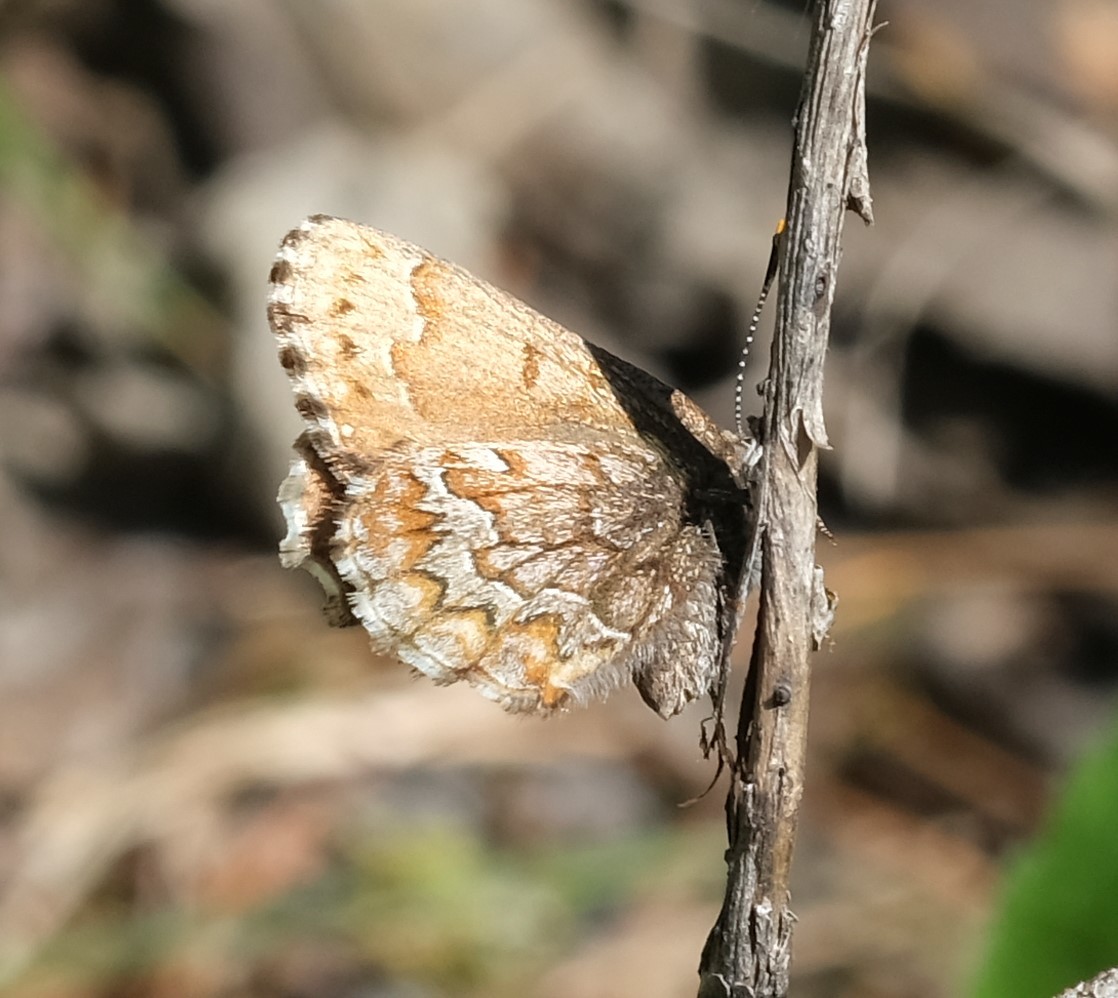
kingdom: Animalia
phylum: Arthropoda
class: Insecta
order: Lepidoptera
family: Lycaenidae
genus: Incisalia
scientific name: Incisalia niphon
